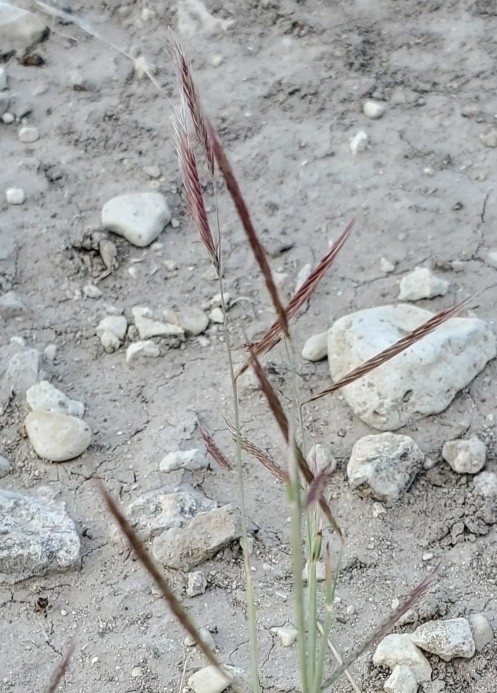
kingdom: Plantae
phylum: Tracheophyta
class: Liliopsida
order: Poales
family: Poaceae
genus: Bouteloua
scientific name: Bouteloua trifida
